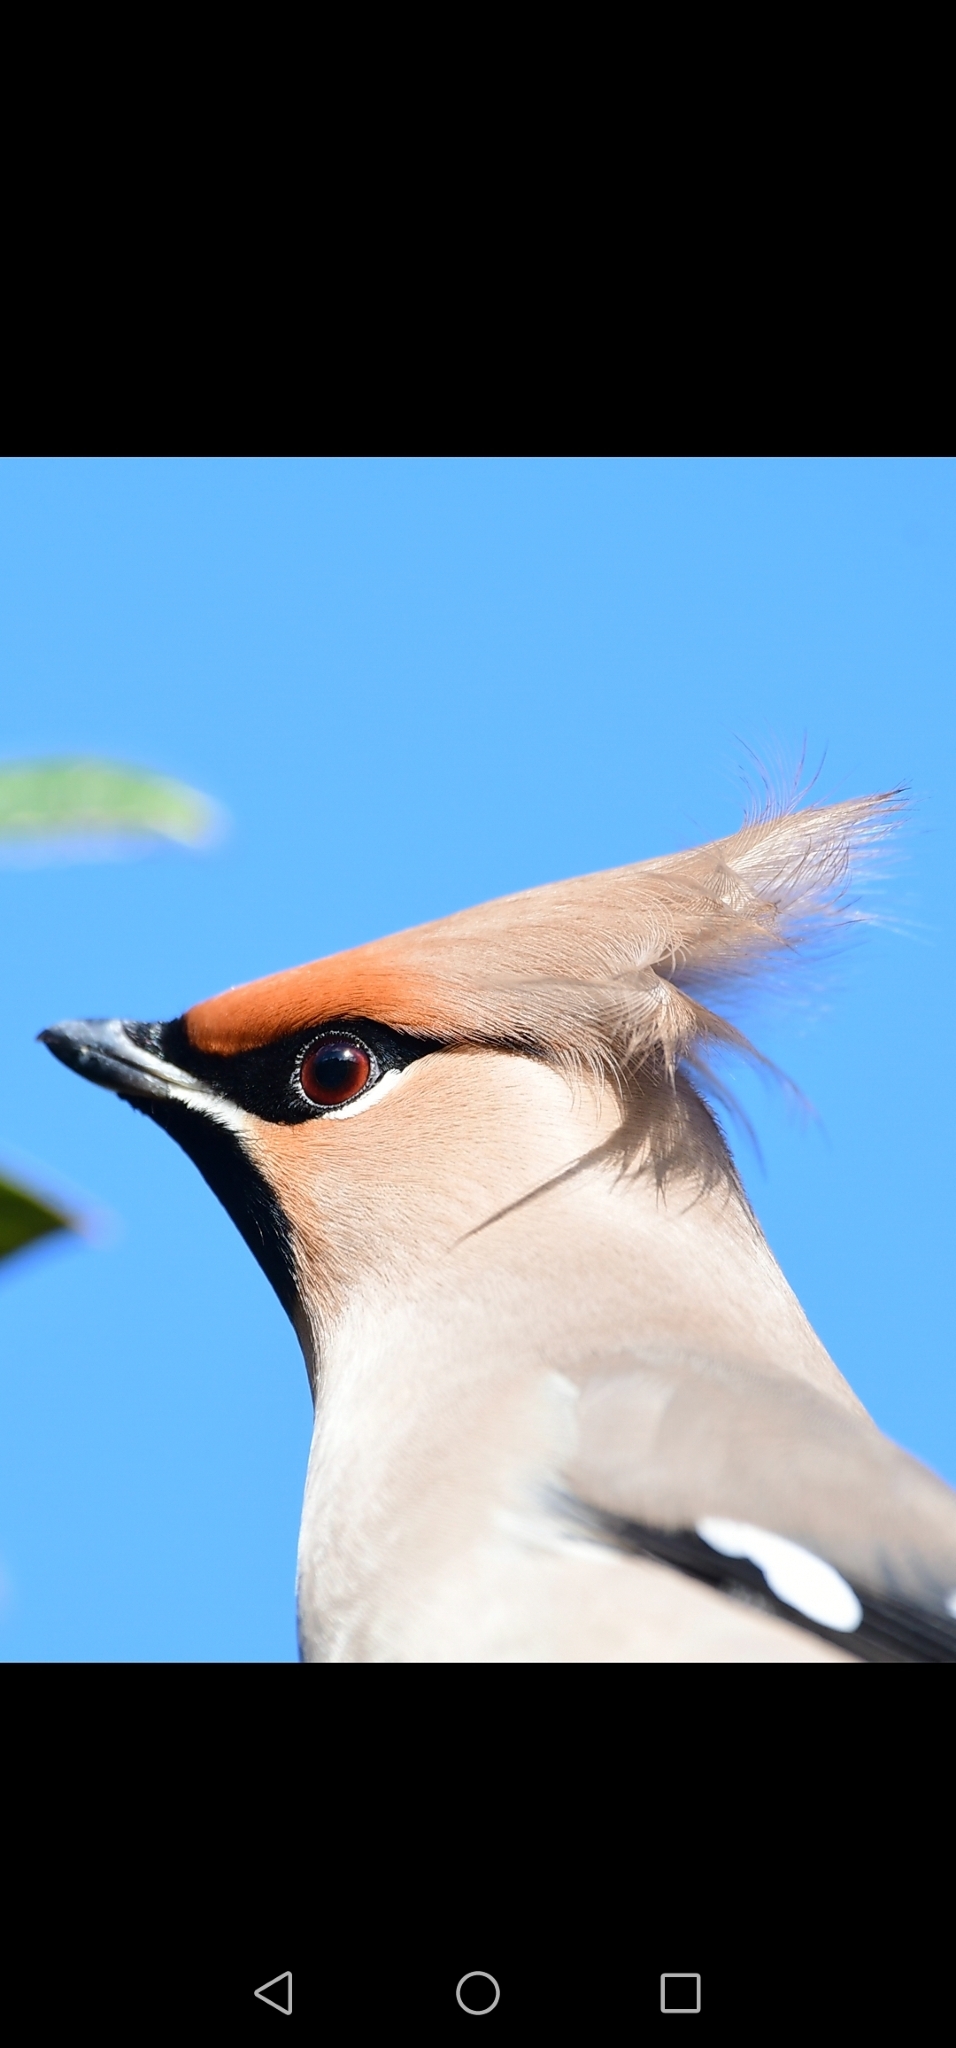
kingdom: Animalia
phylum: Chordata
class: Aves
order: Passeriformes
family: Bombycillidae
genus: Bombycilla
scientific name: Bombycilla garrulus
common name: Bohemian waxwing
